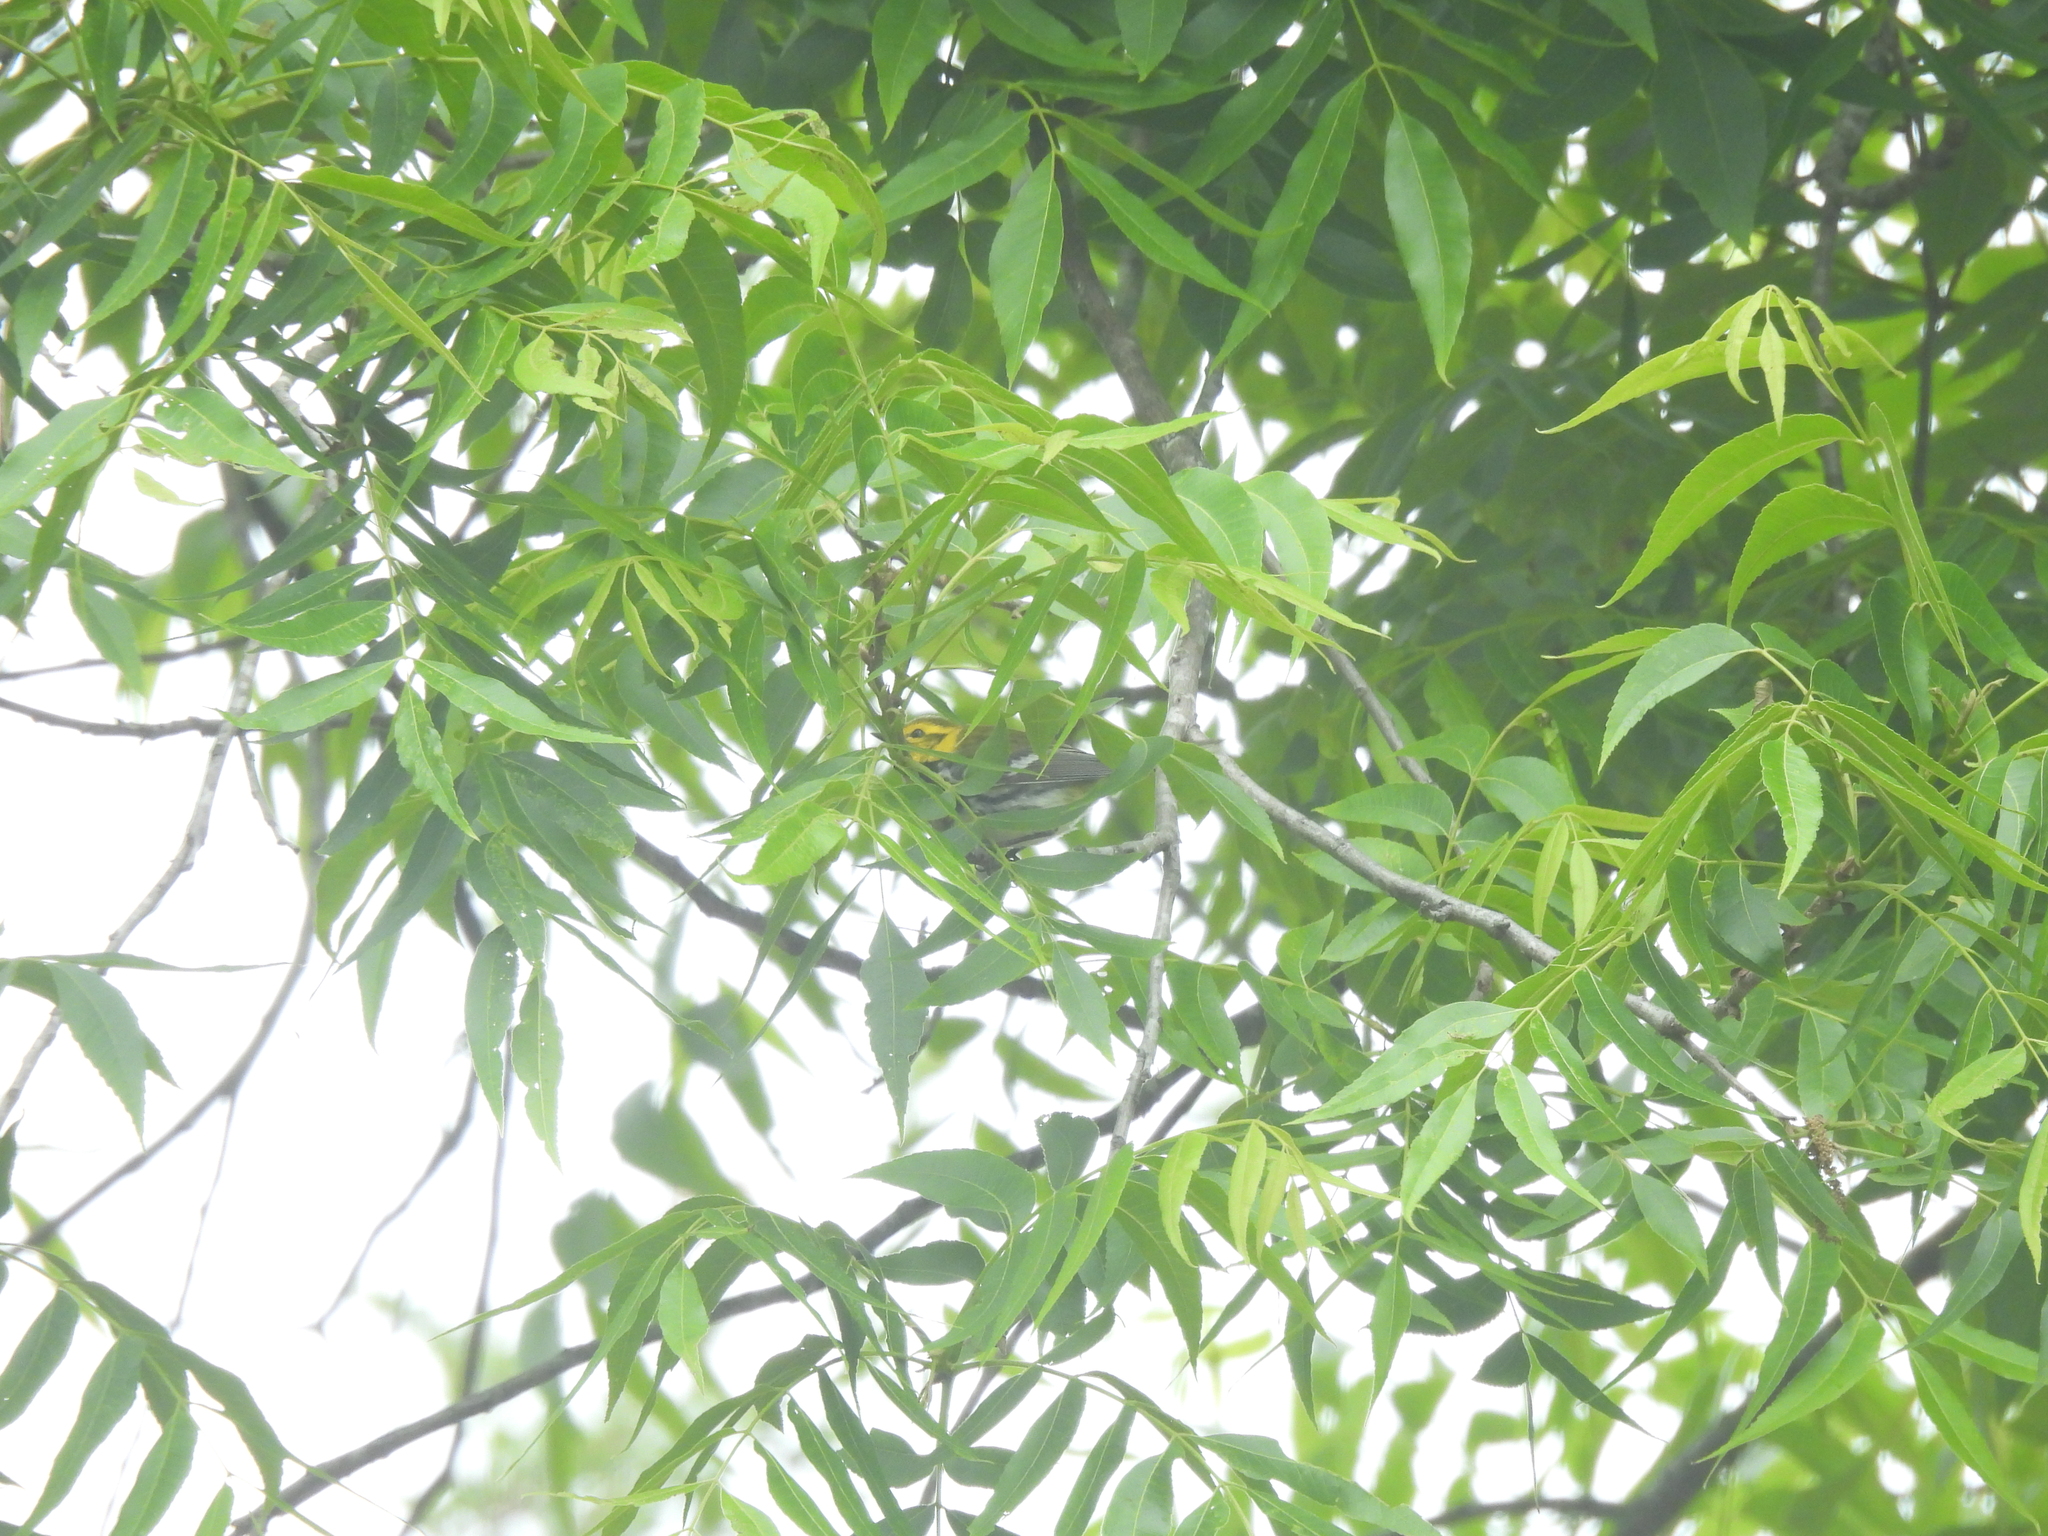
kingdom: Animalia
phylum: Chordata
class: Aves
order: Passeriformes
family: Parulidae
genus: Setophaga
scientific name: Setophaga virens
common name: Black-throated green warbler
